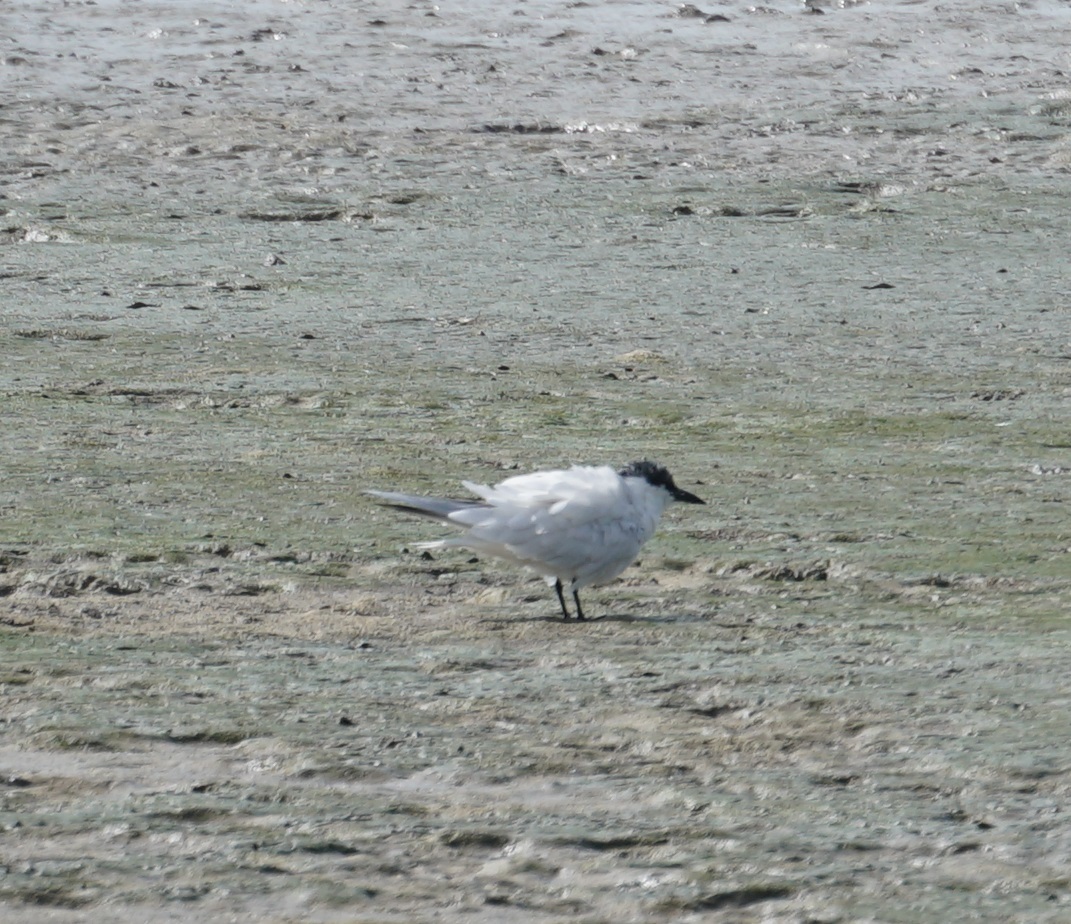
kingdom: Animalia
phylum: Chordata
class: Aves
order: Charadriiformes
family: Laridae
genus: Gelochelidon
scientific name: Gelochelidon macrotarsa
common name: Australian tern
